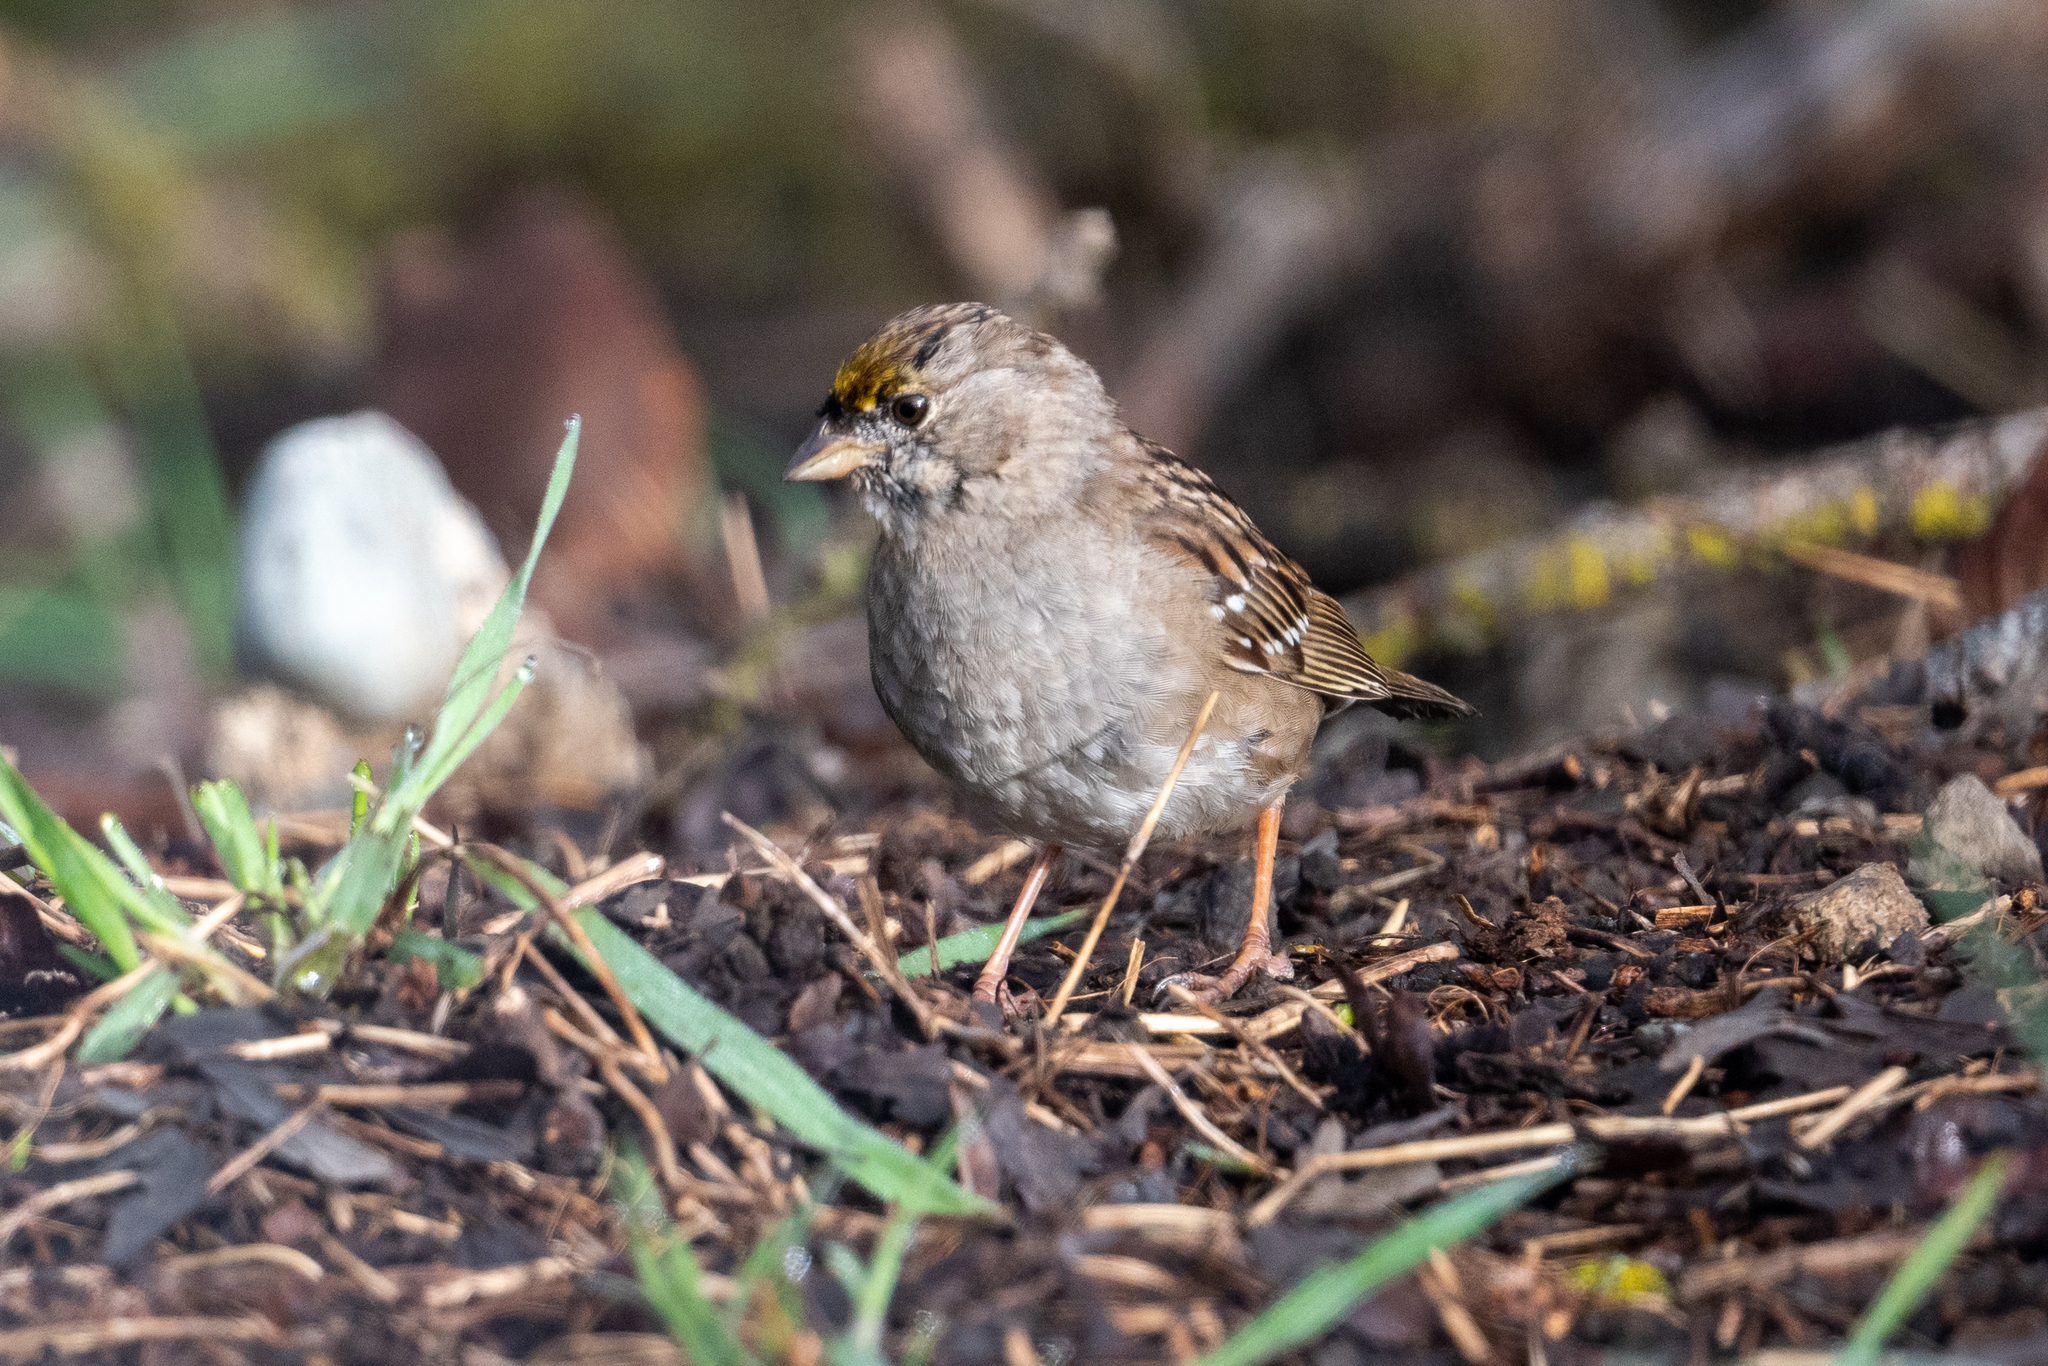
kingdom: Animalia
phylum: Chordata
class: Aves
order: Passeriformes
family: Passerellidae
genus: Zonotrichia
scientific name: Zonotrichia atricapilla
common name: Golden-crowned sparrow
